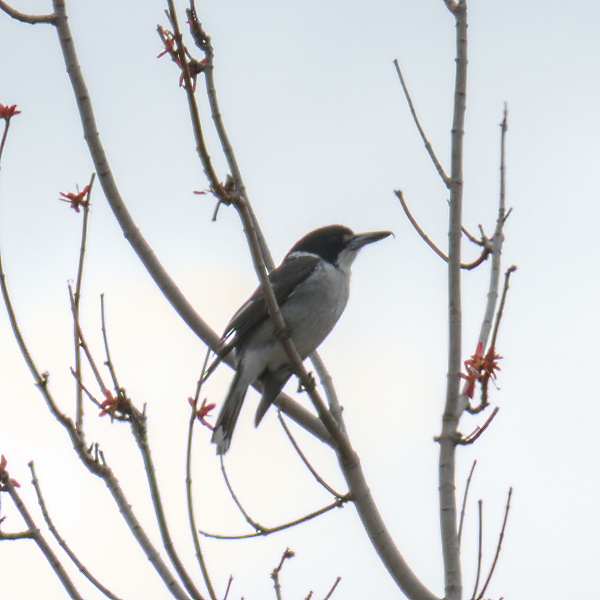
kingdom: Animalia
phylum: Chordata
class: Aves
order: Passeriformes
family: Cracticidae
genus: Cracticus
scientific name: Cracticus torquatus
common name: Grey butcherbird
